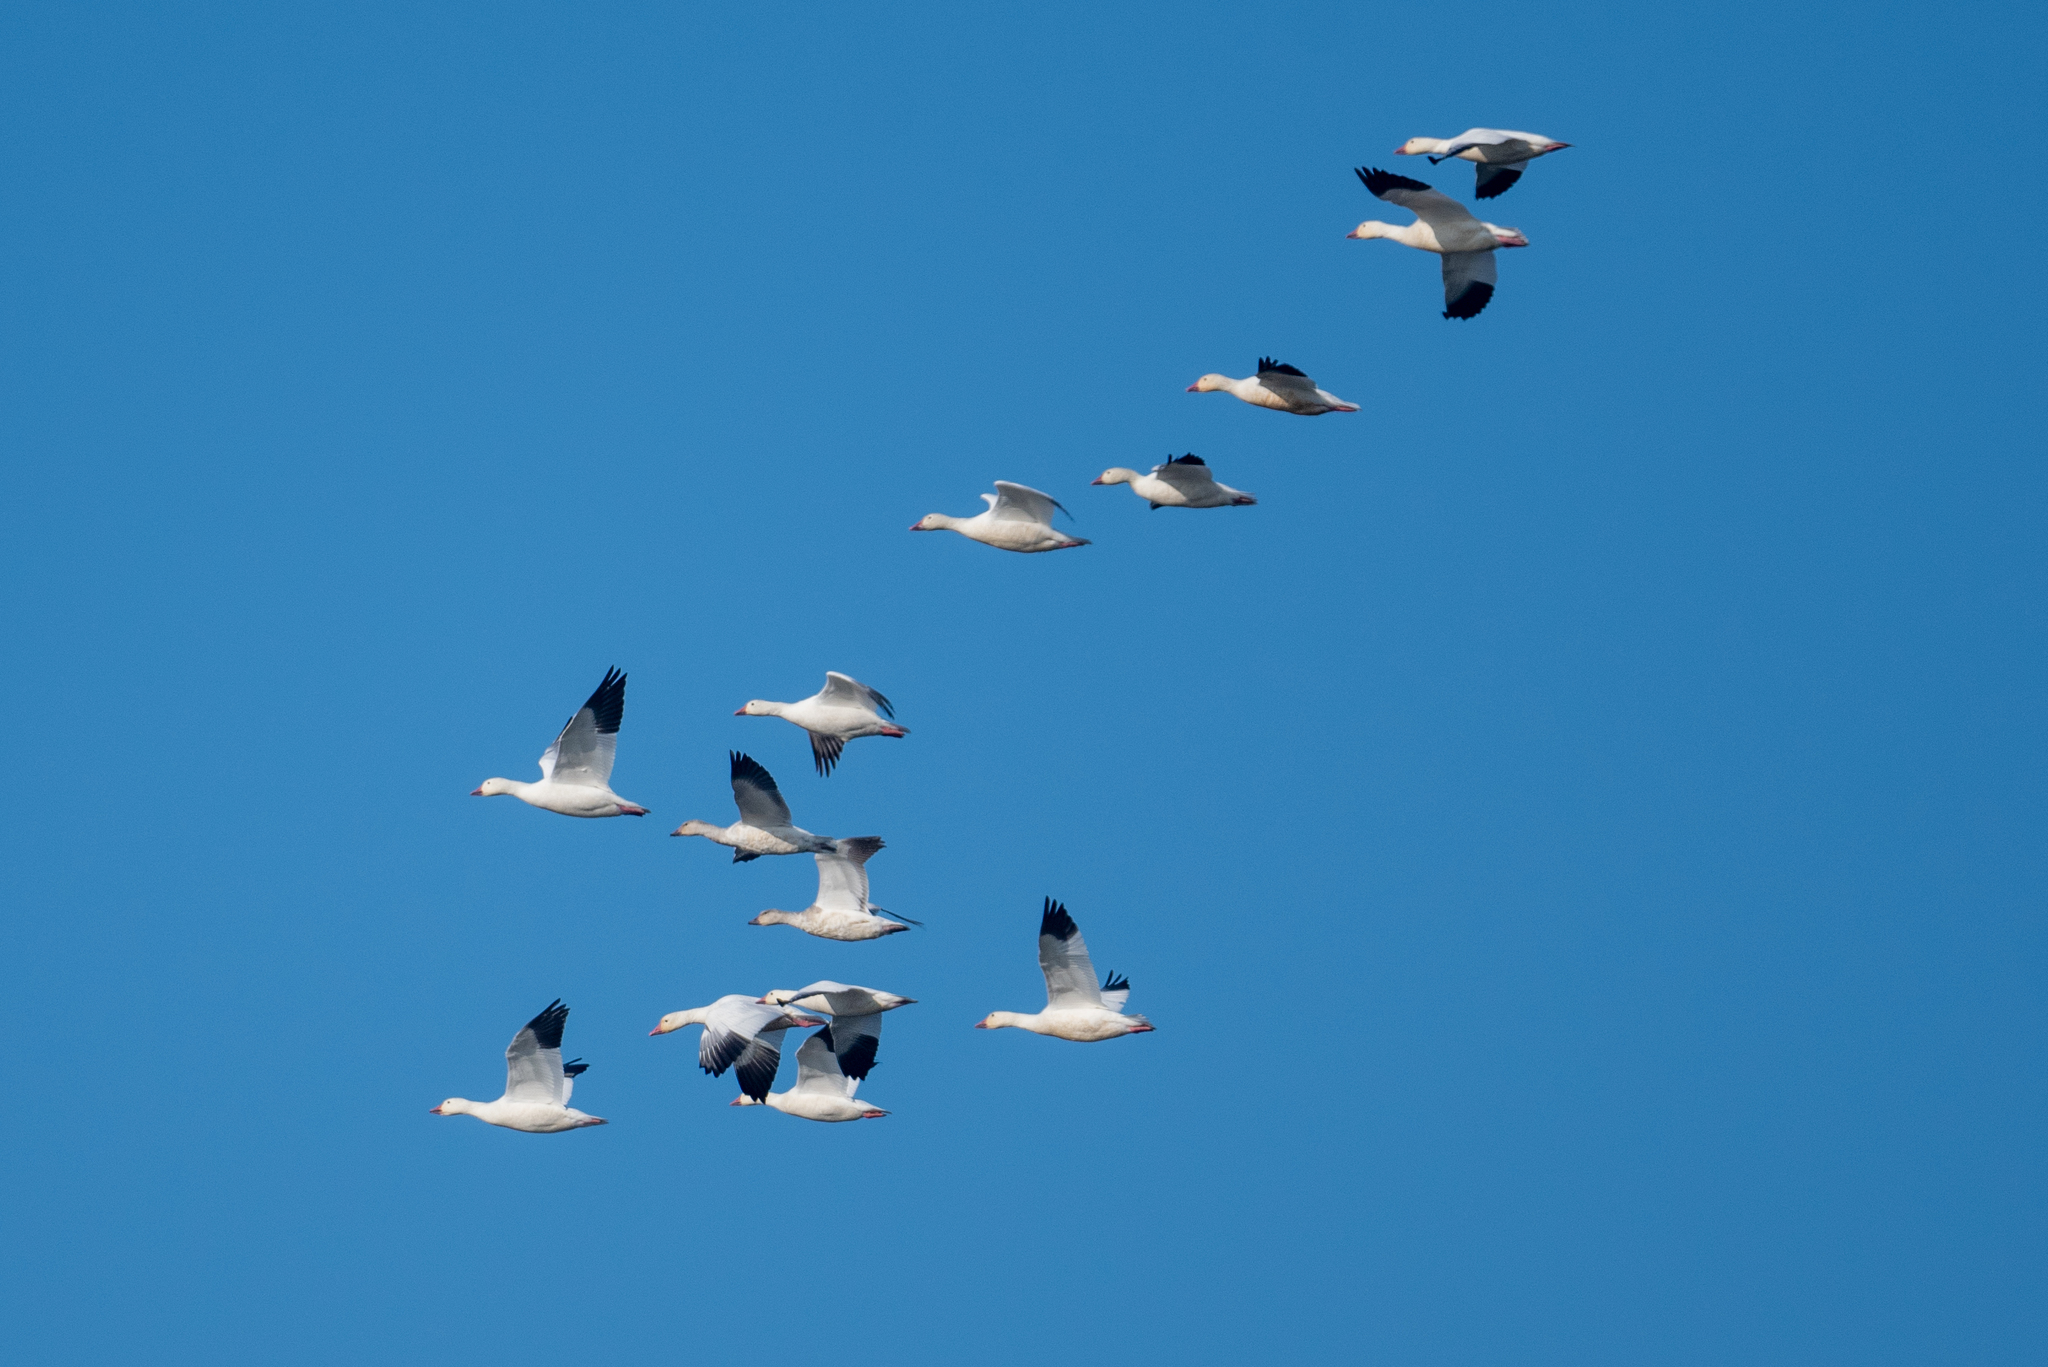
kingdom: Animalia
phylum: Chordata
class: Aves
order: Anseriformes
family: Anatidae
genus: Anser
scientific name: Anser caerulescens
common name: Snow goose
